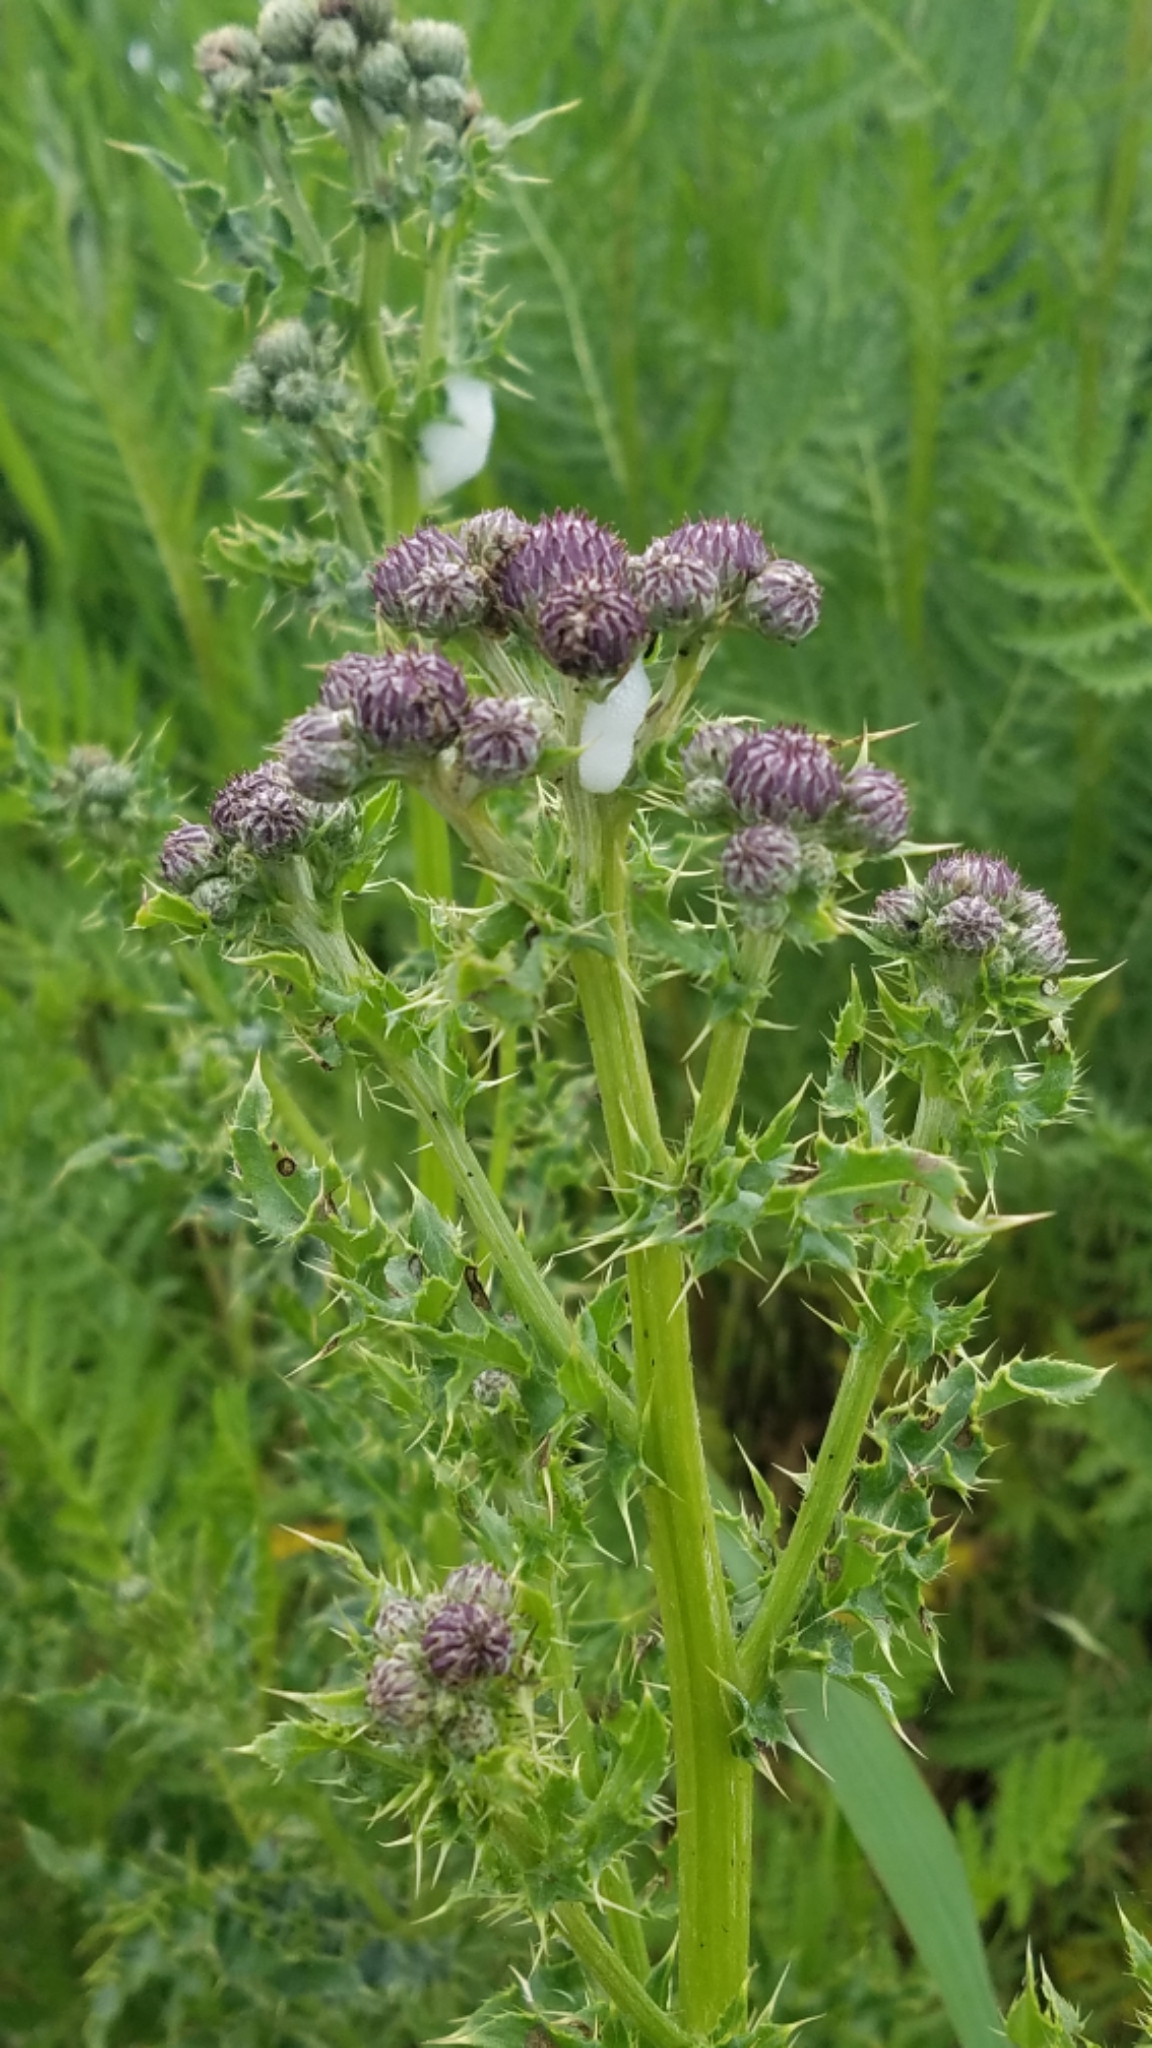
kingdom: Plantae
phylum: Tracheophyta
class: Magnoliopsida
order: Asterales
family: Asteraceae
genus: Cirsium
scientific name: Cirsium arvense
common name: Creeping thistle
